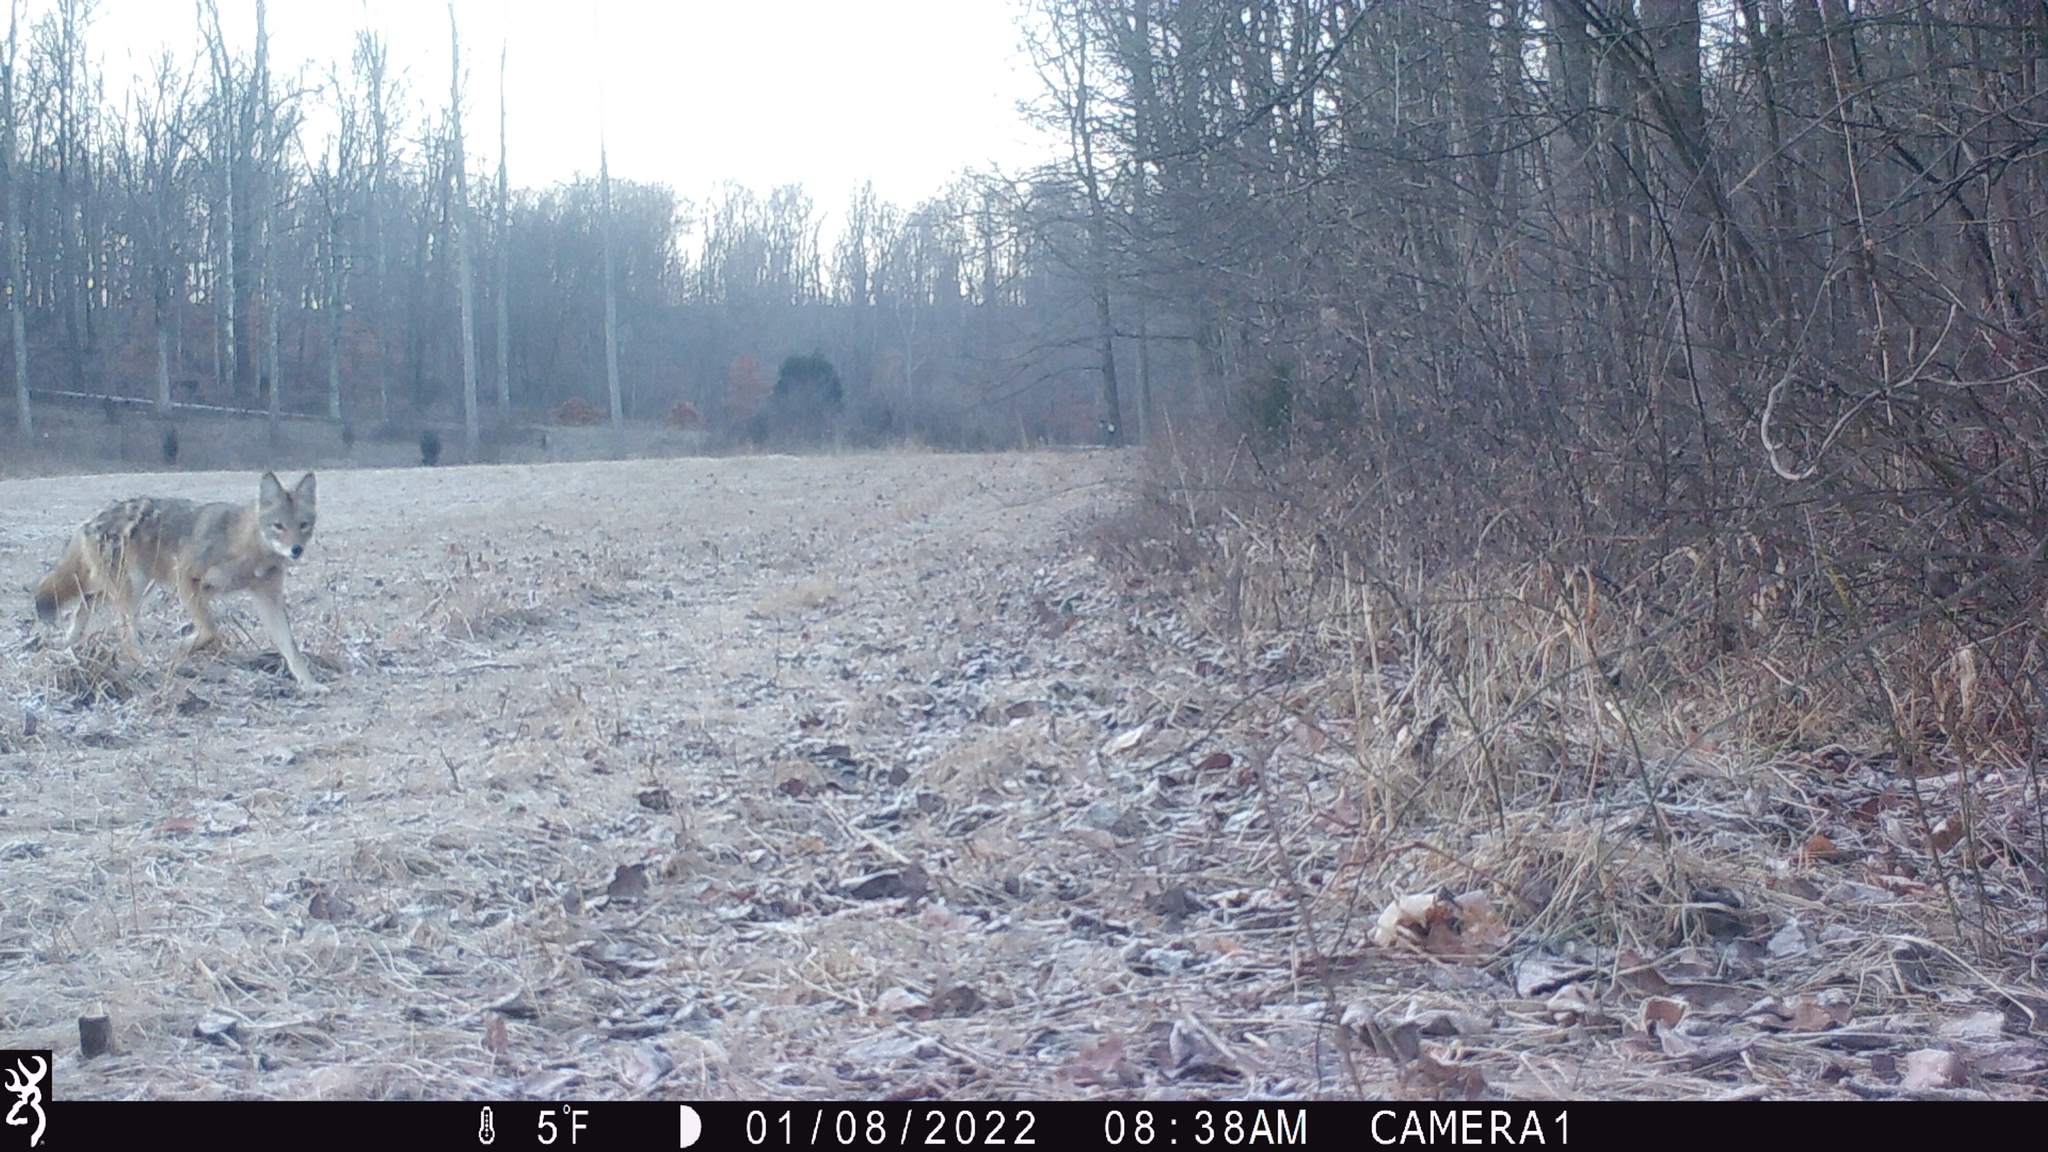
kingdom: Animalia
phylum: Chordata
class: Mammalia
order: Carnivora
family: Canidae
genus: Canis
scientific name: Canis latrans
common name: Coyote
